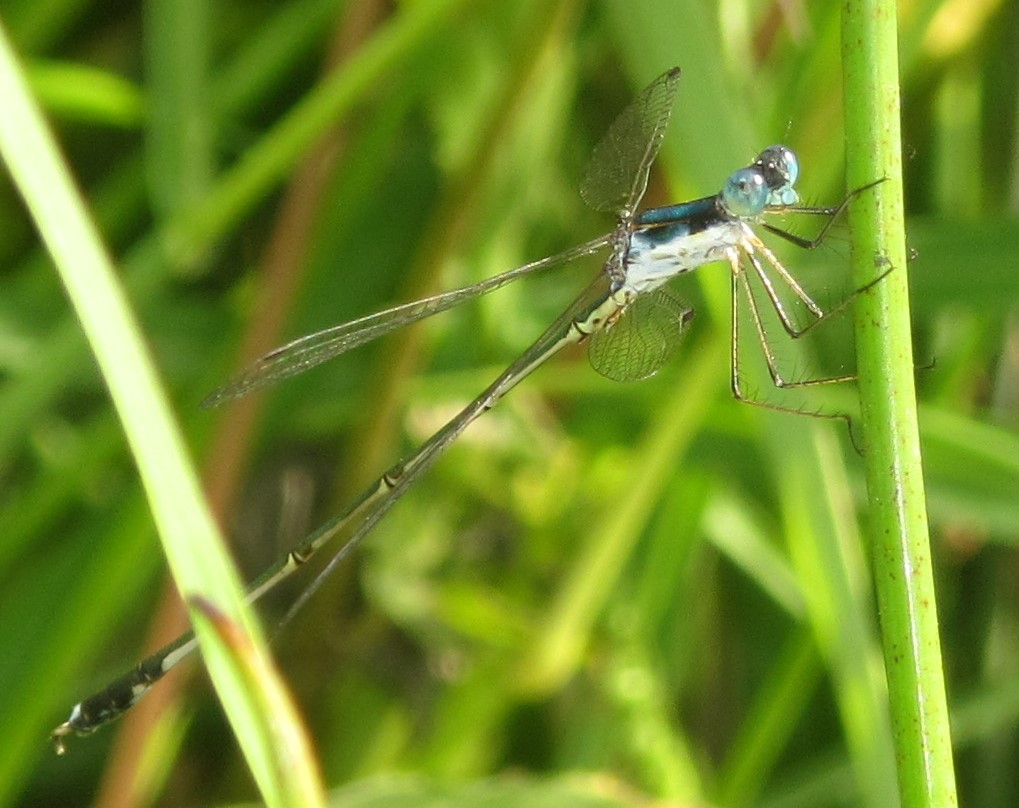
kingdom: Animalia
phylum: Arthropoda
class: Insecta
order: Odonata
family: Lestidae
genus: Lestes
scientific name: Lestes pinheyi
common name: Pinhey's spreadwing
